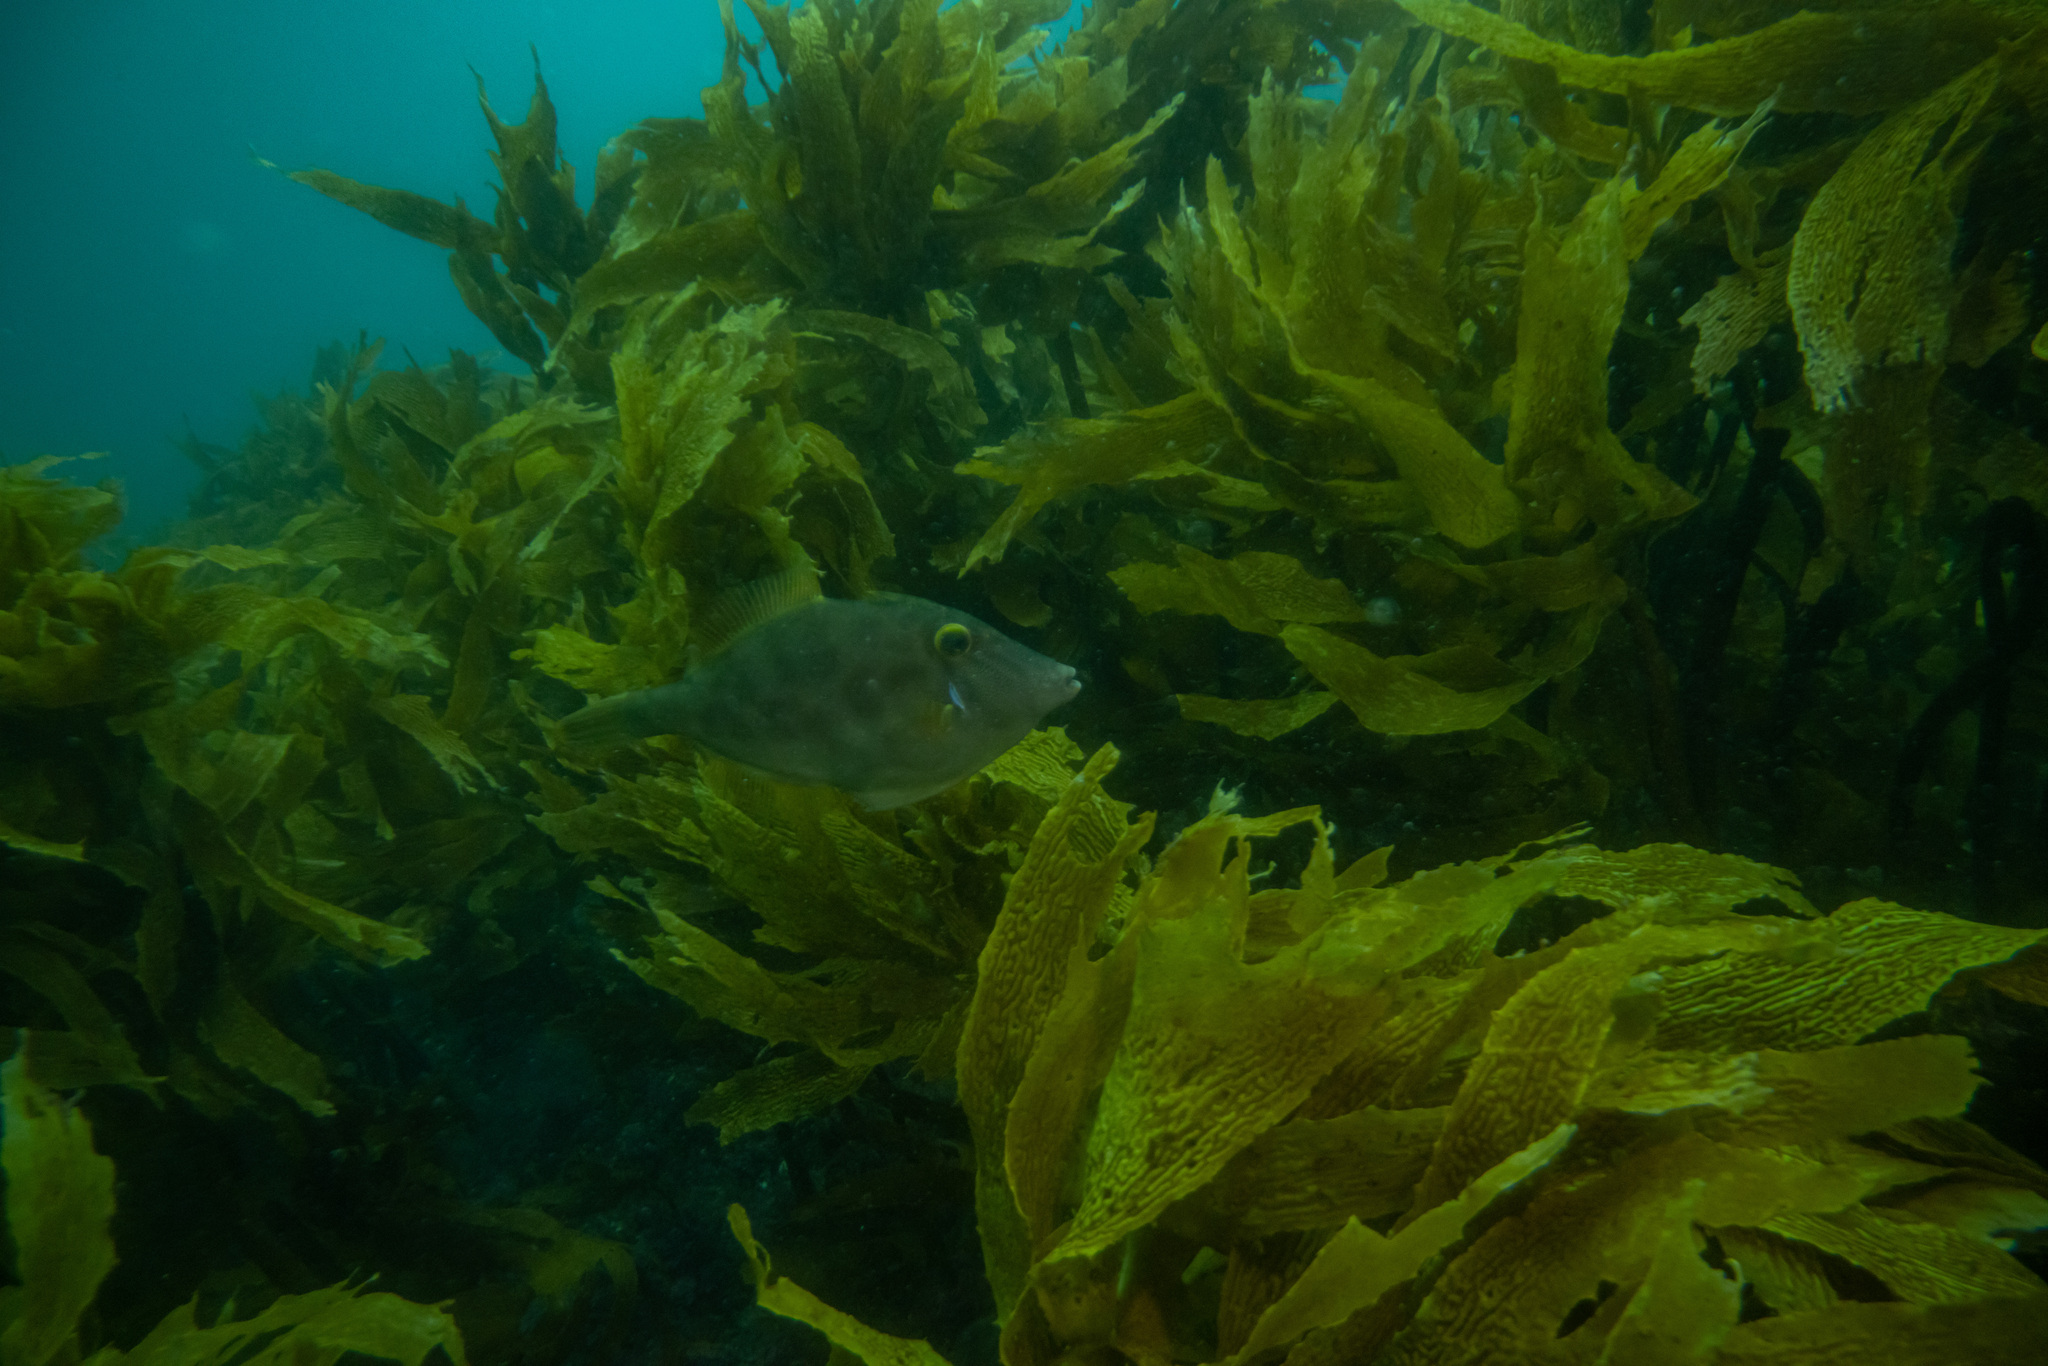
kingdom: Animalia
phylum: Chordata
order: Tetraodontiformes
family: Monacanthidae
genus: Meuschenia
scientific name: Meuschenia scaber
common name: Cosmopolitan leatherjacket
